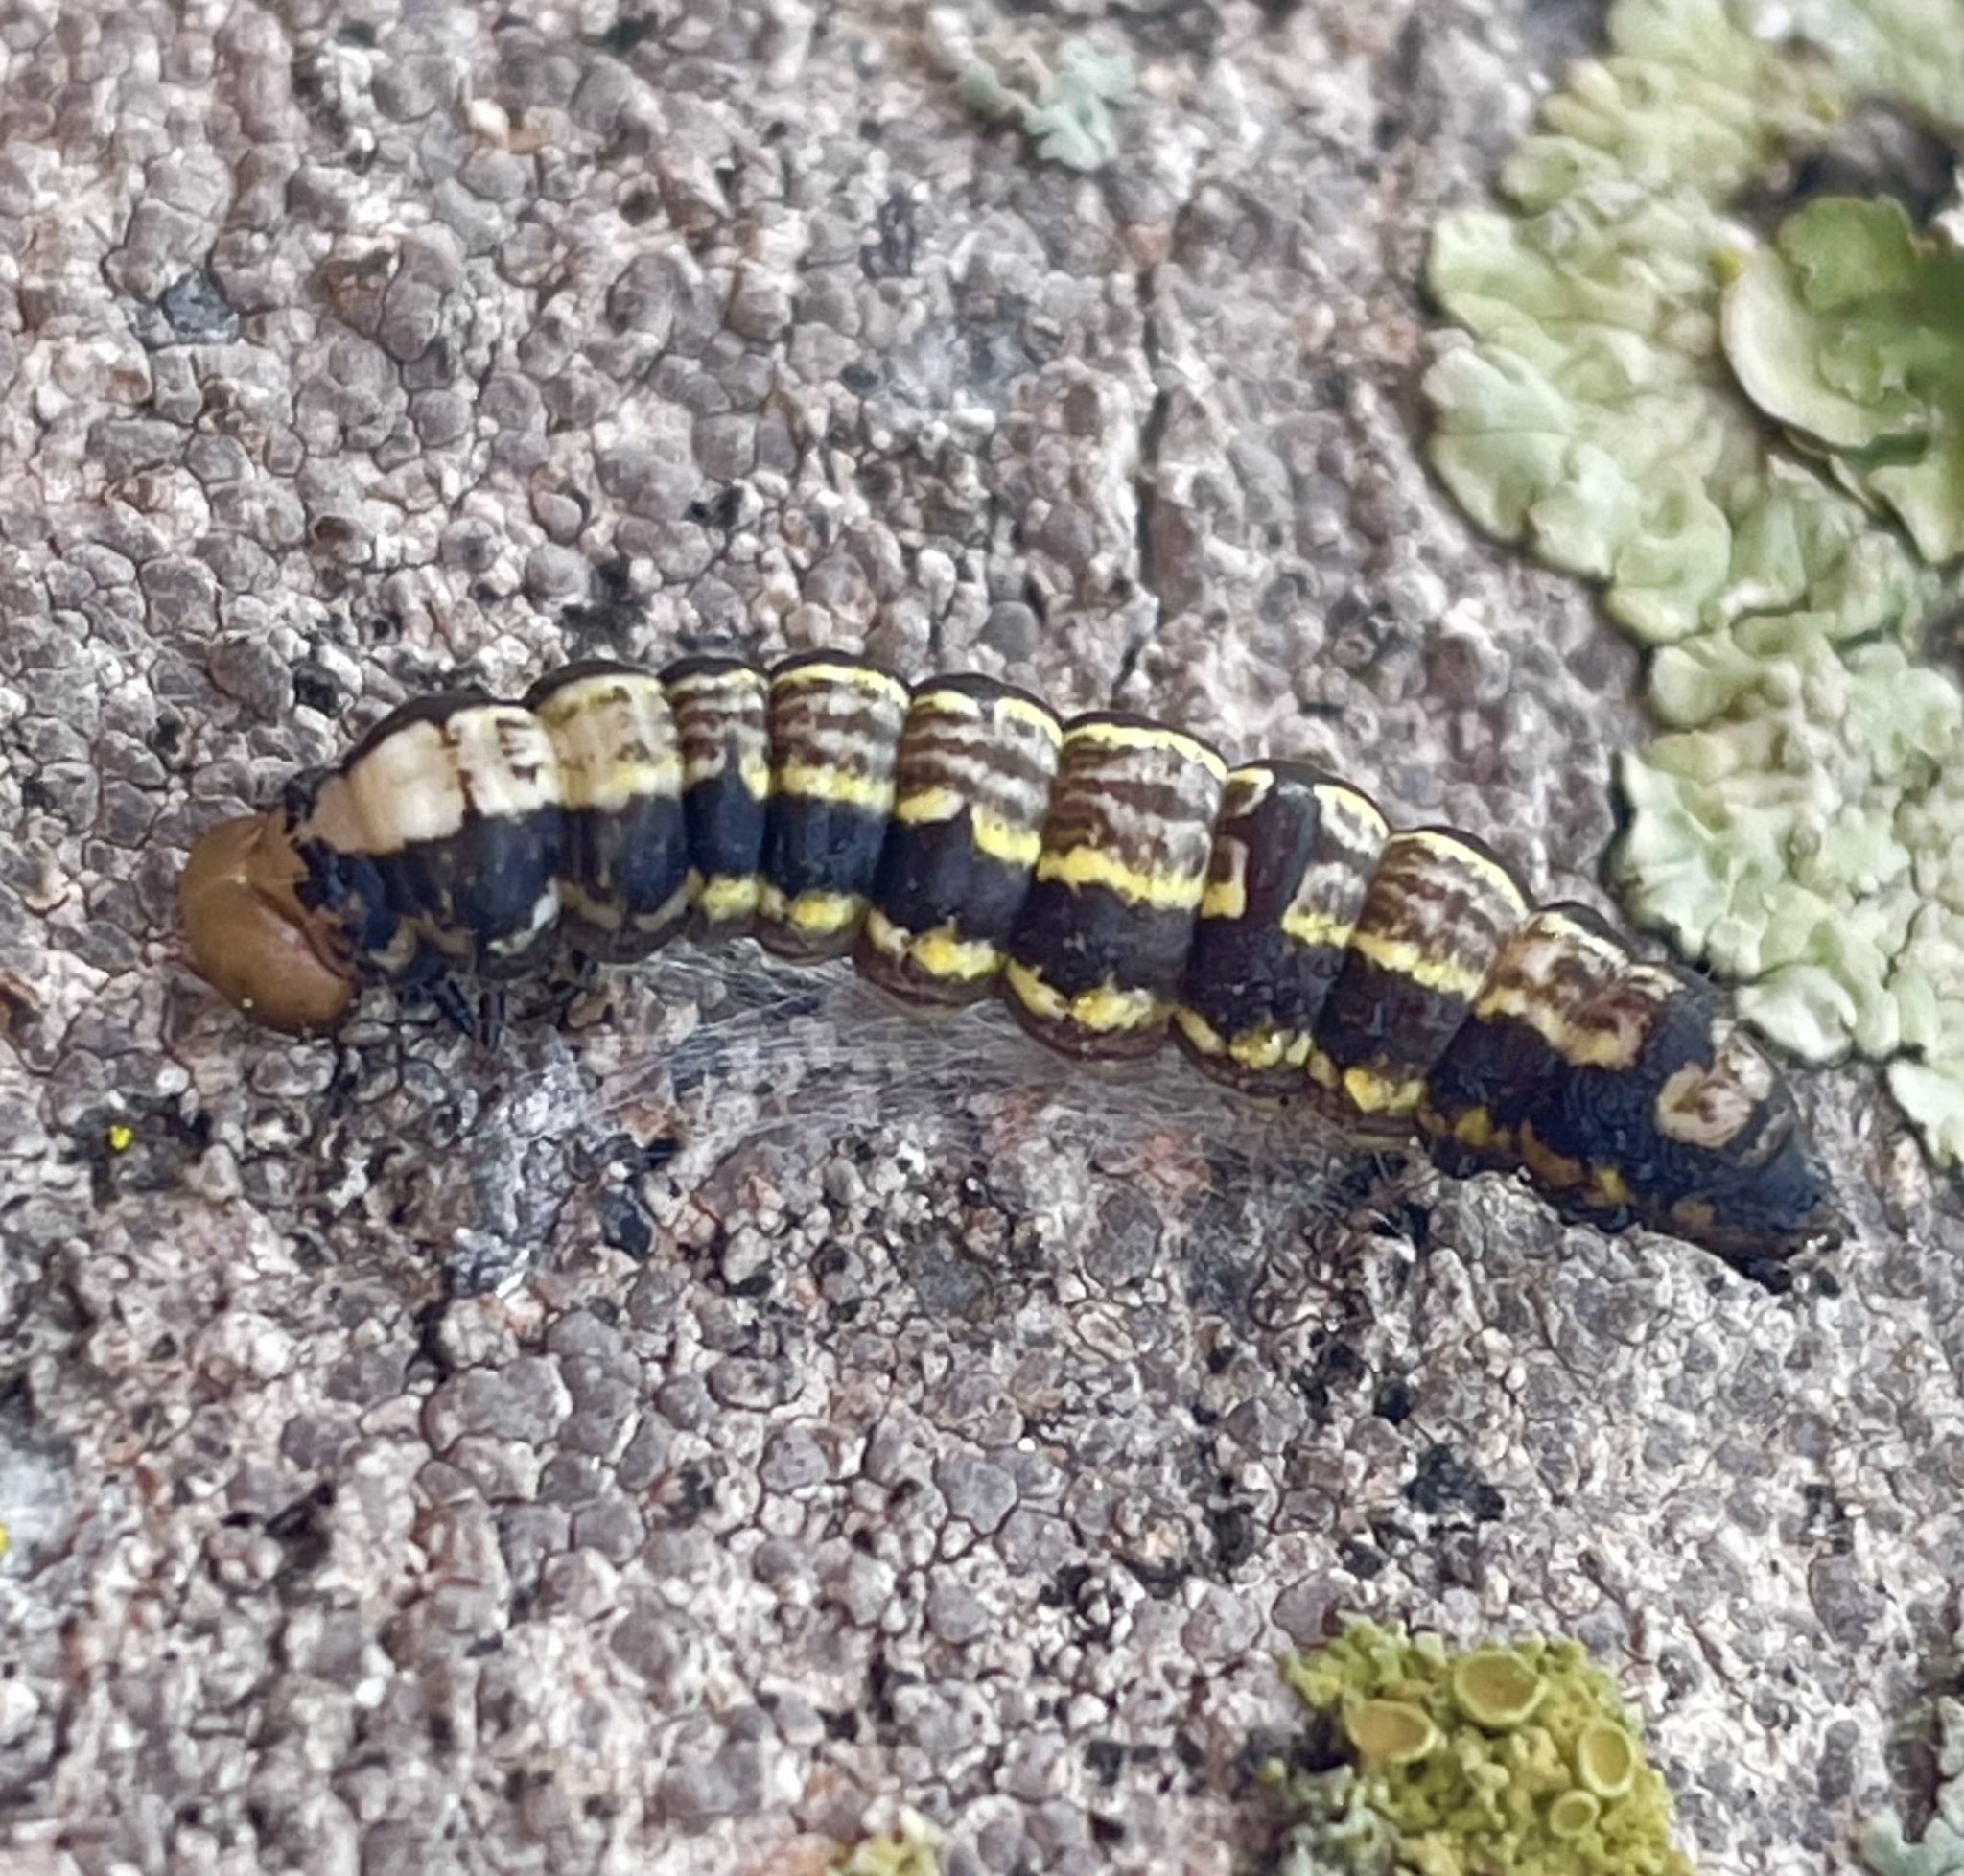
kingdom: Animalia
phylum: Arthropoda
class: Insecta
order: Lepidoptera
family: Notodontidae
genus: Phryganidia
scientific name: Phryganidia californica
